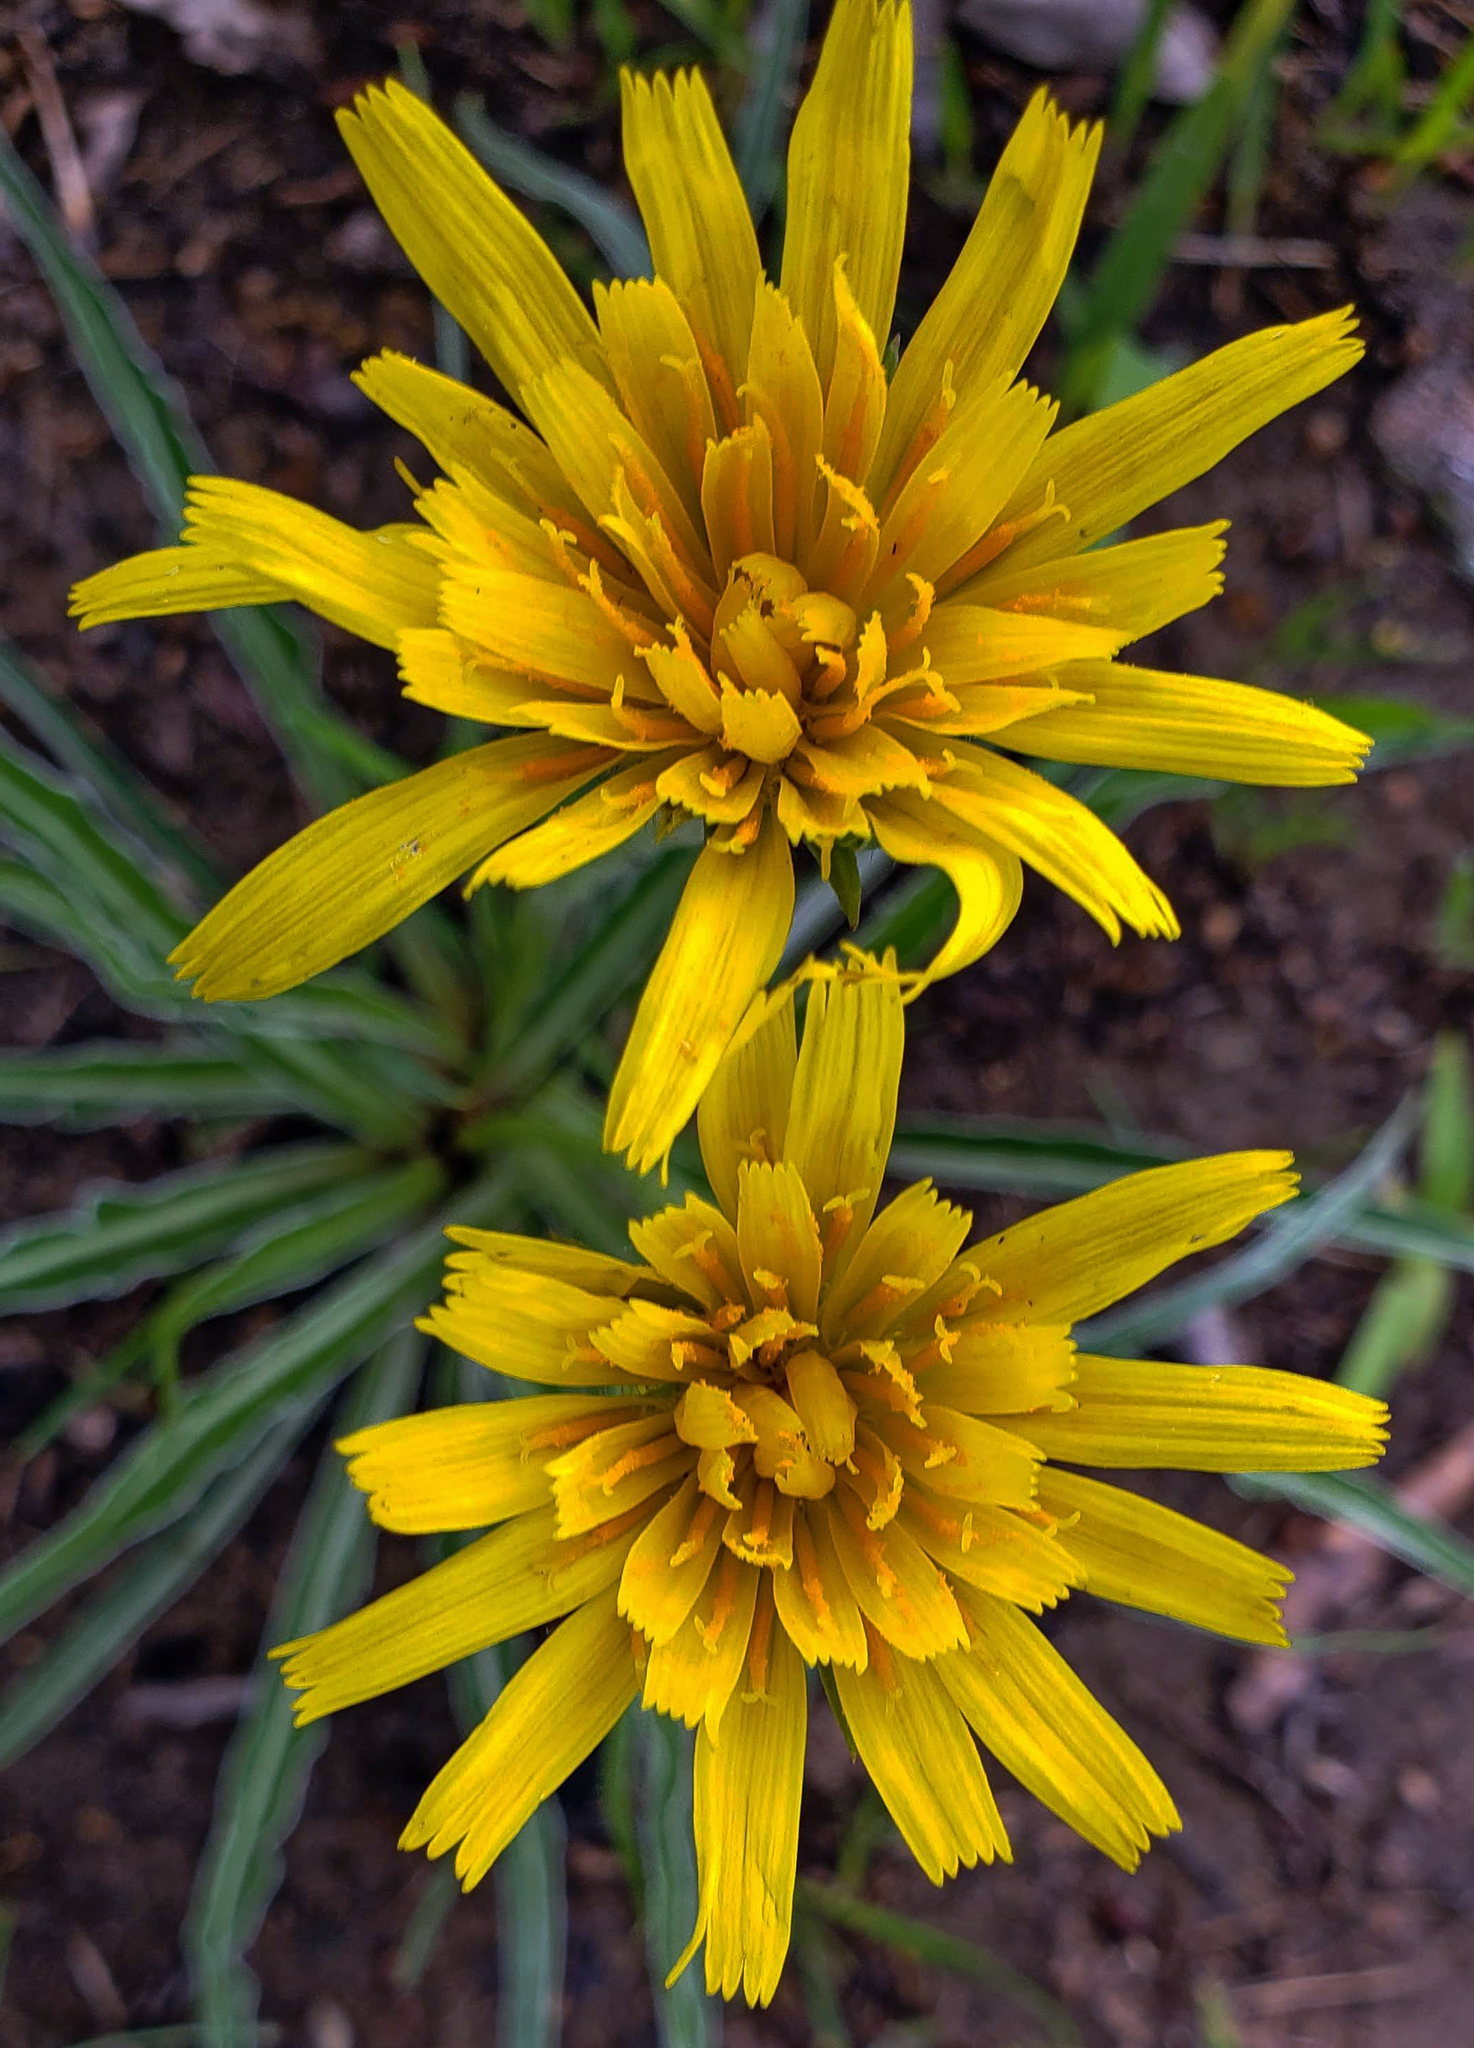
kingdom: Plantae
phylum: Tracheophyta
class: Magnoliopsida
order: Asterales
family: Asteraceae
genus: Microseris
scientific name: Microseris cuspidata
